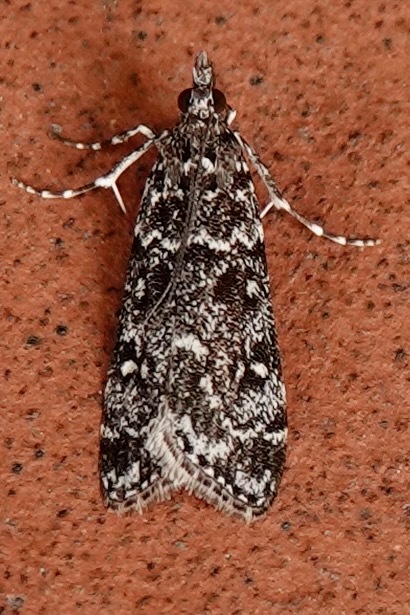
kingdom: Animalia
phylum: Arthropoda
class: Insecta
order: Lepidoptera
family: Crambidae
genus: Eudonia
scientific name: Eudonia philerga
